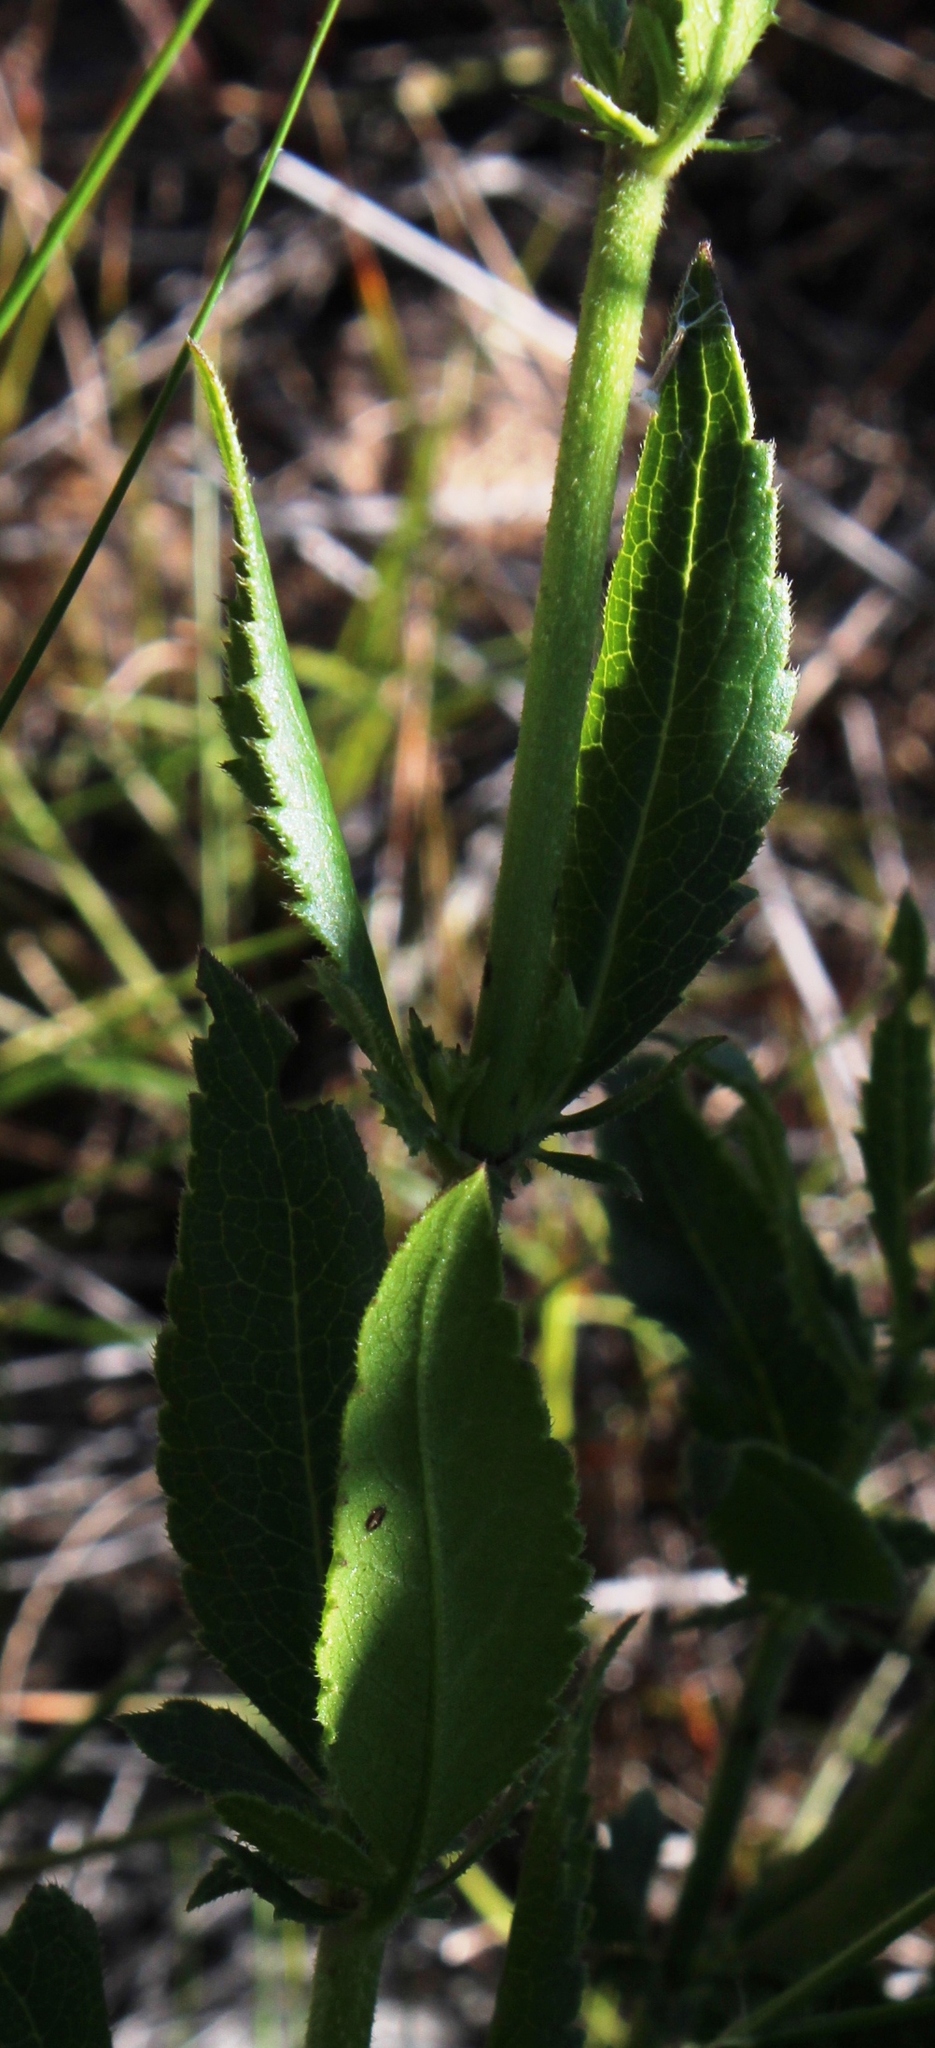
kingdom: Plantae
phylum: Tracheophyta
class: Magnoliopsida
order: Dipsacales
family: Caprifoliaceae
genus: Cephalaria
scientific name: Cephalaria rigida
